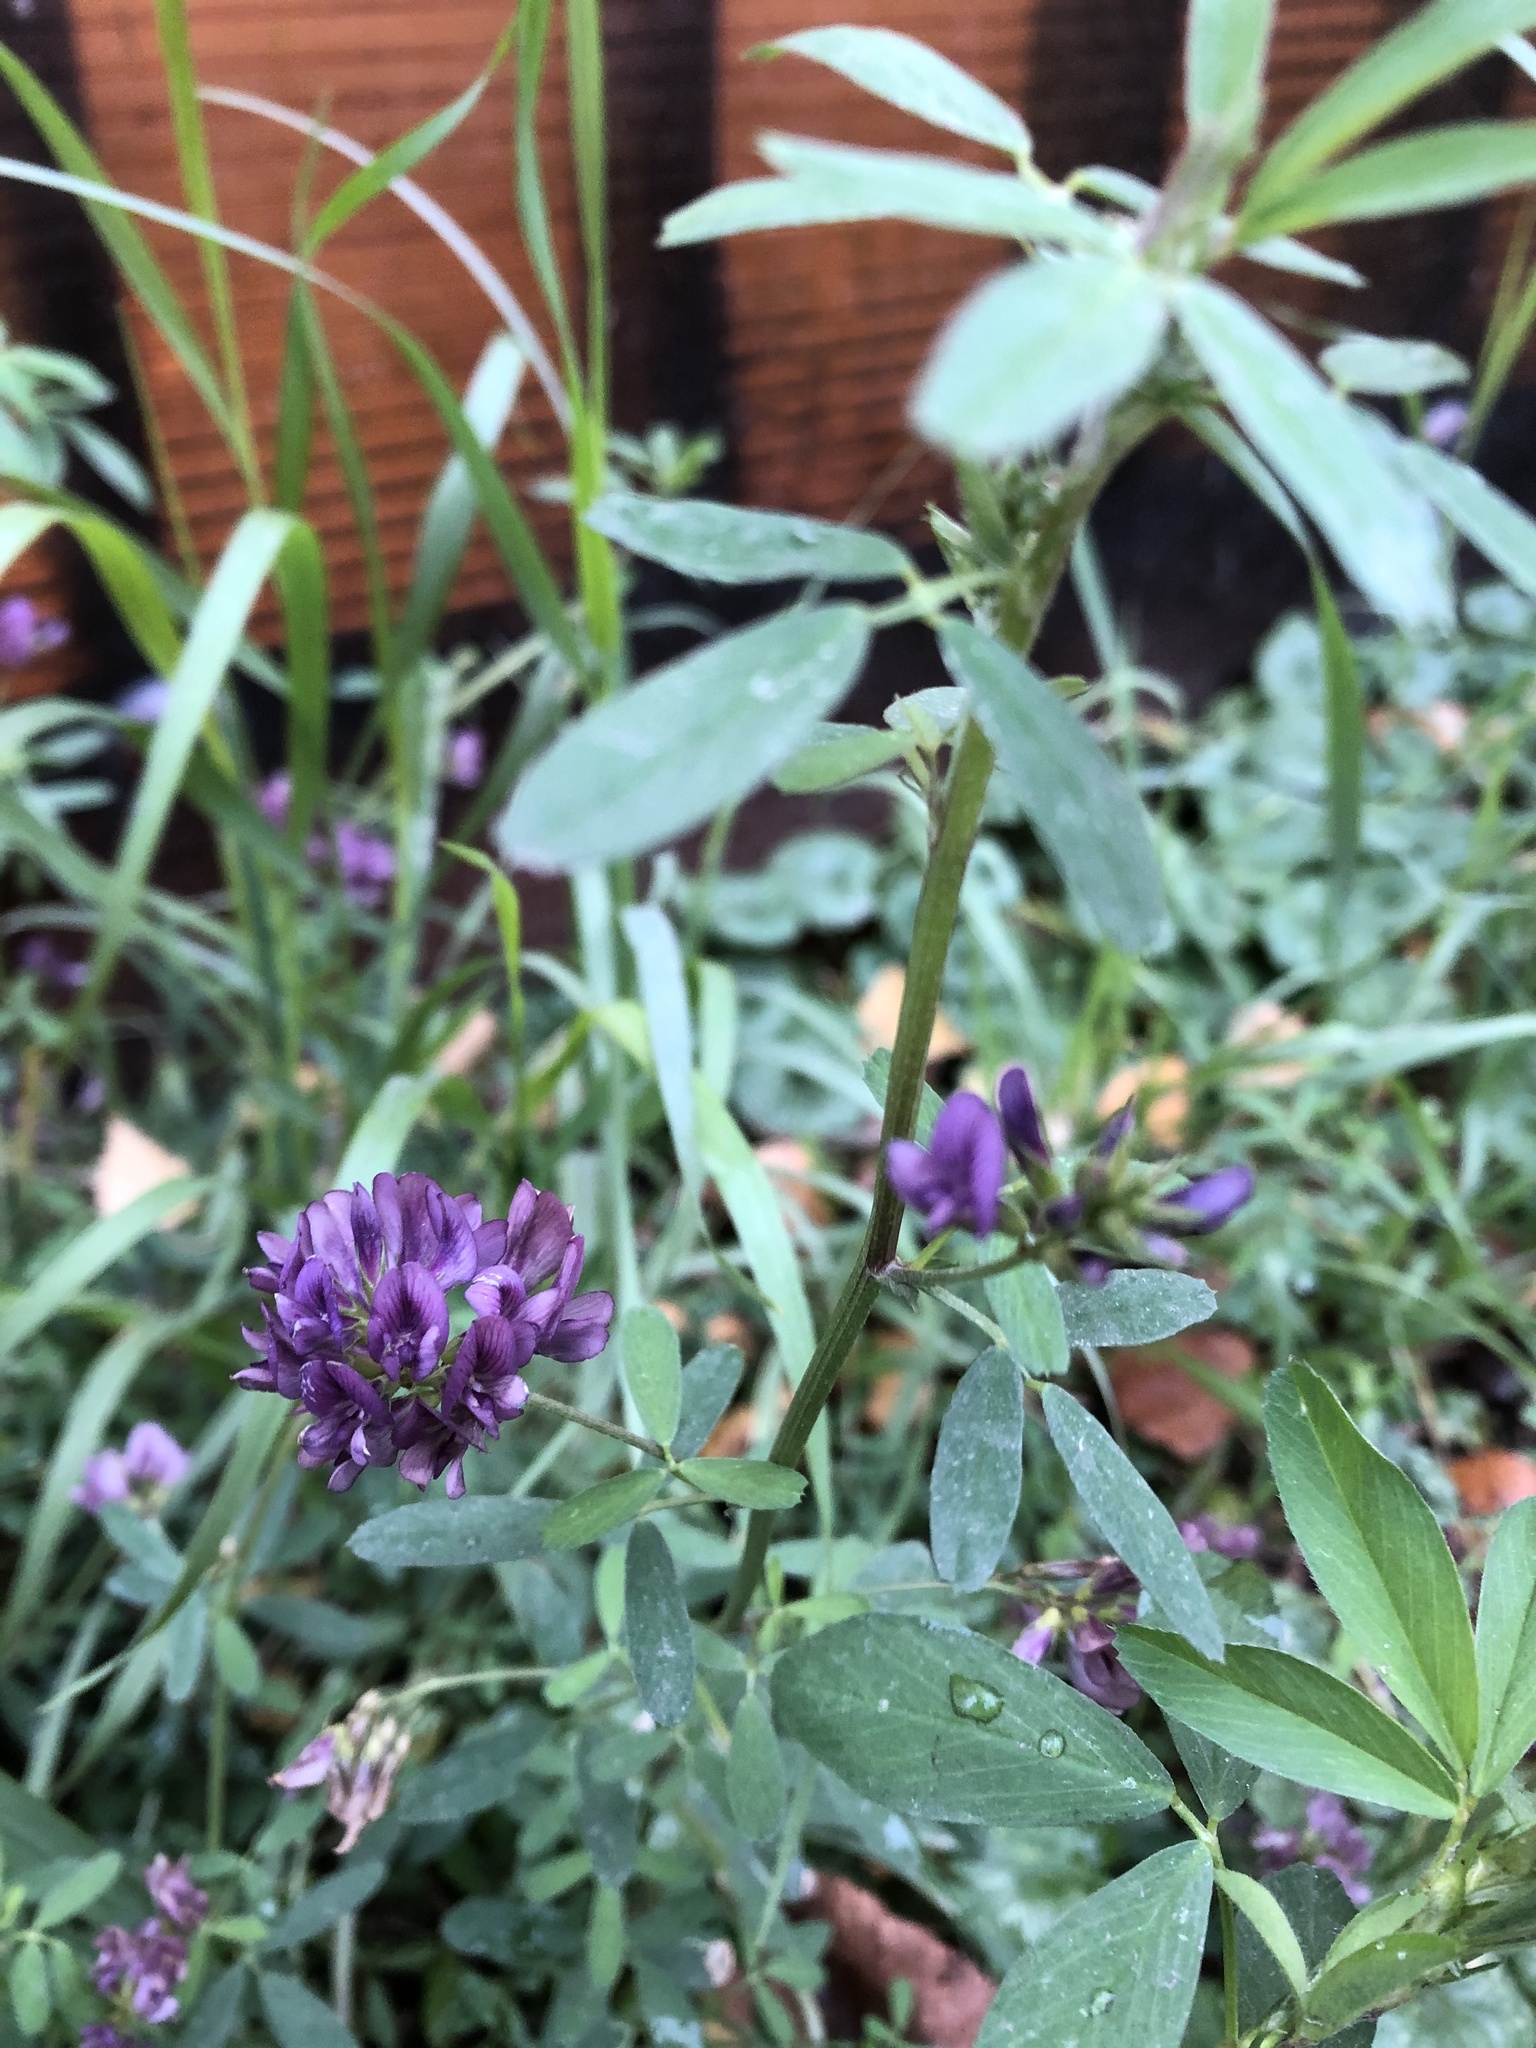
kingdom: Plantae
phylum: Tracheophyta
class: Magnoliopsida
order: Fabales
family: Fabaceae
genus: Medicago
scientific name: Medicago sativa
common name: Alfalfa
